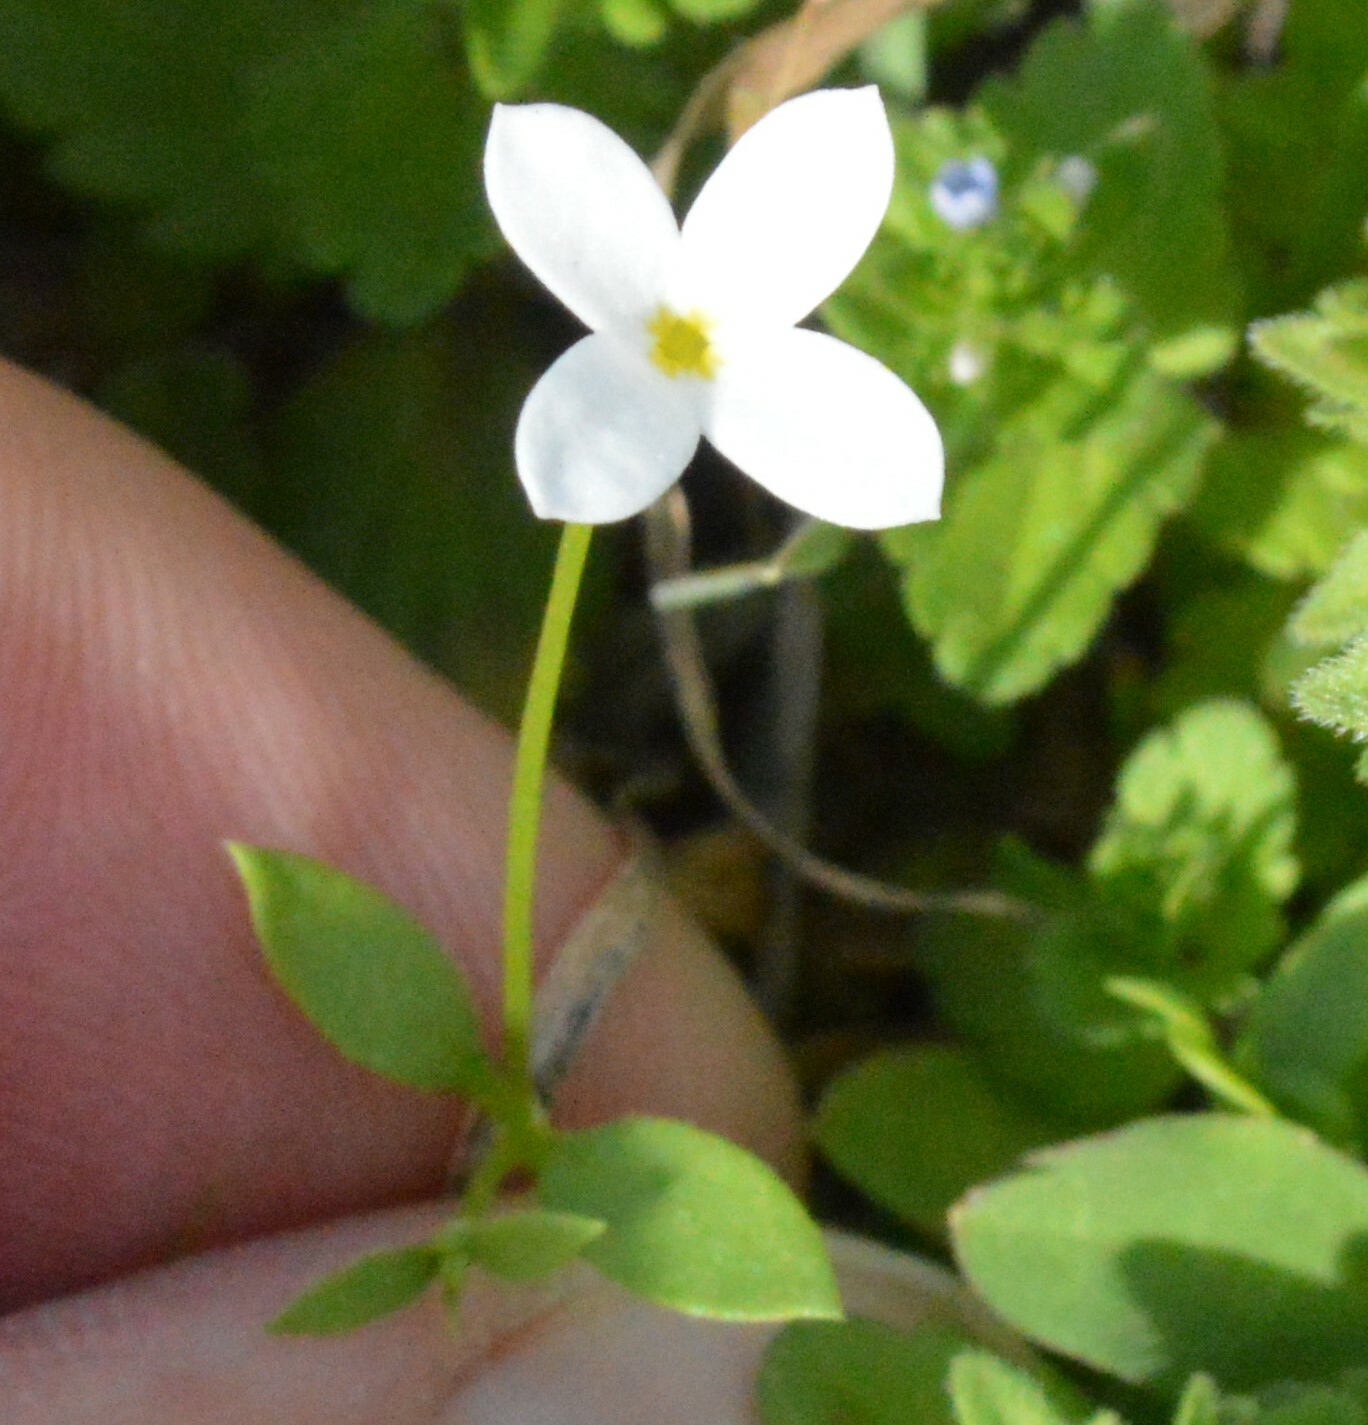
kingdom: Plantae
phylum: Tracheophyta
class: Magnoliopsida
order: Gentianales
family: Rubiaceae
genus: Houstonia
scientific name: Houstonia pusilla
